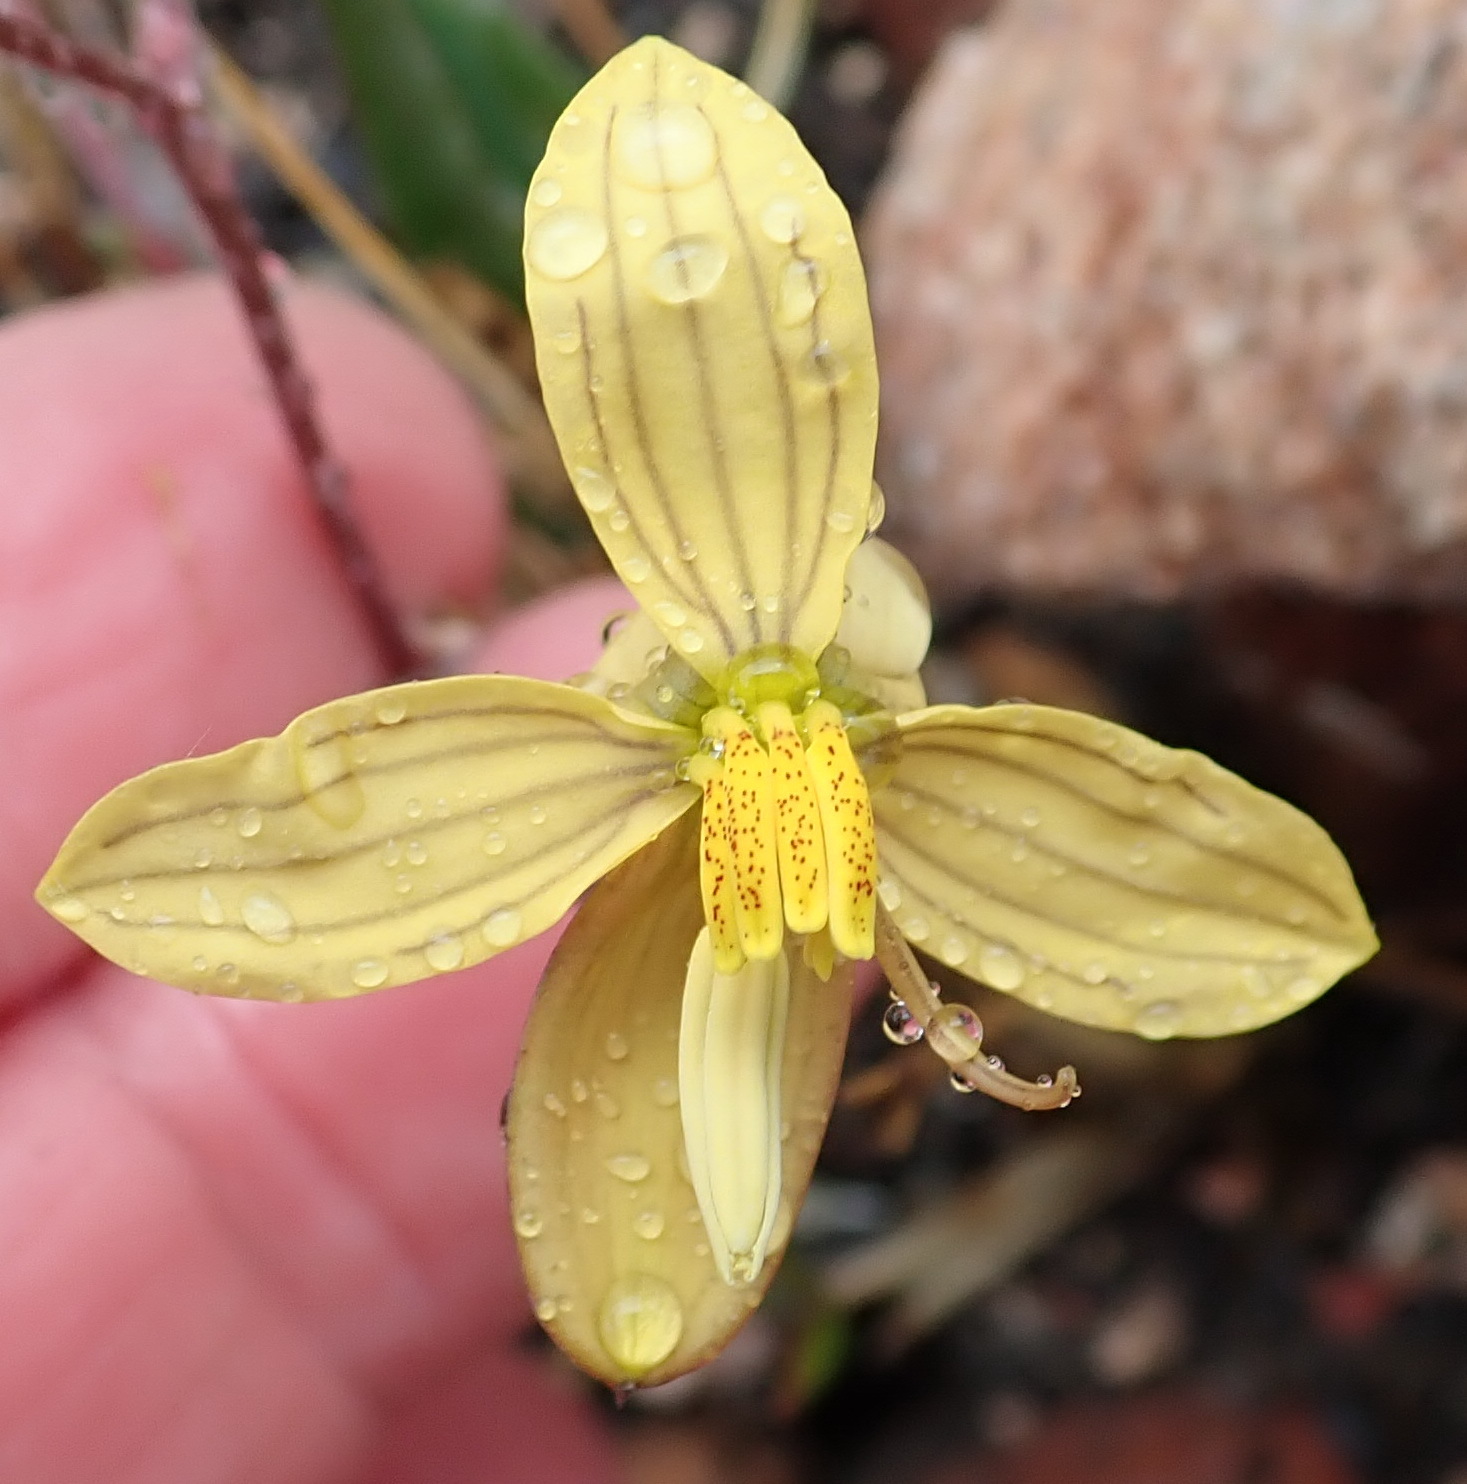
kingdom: Plantae
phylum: Tracheophyta
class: Liliopsida
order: Asparagales
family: Tecophilaeaceae
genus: Cyanella
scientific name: Cyanella lutea
